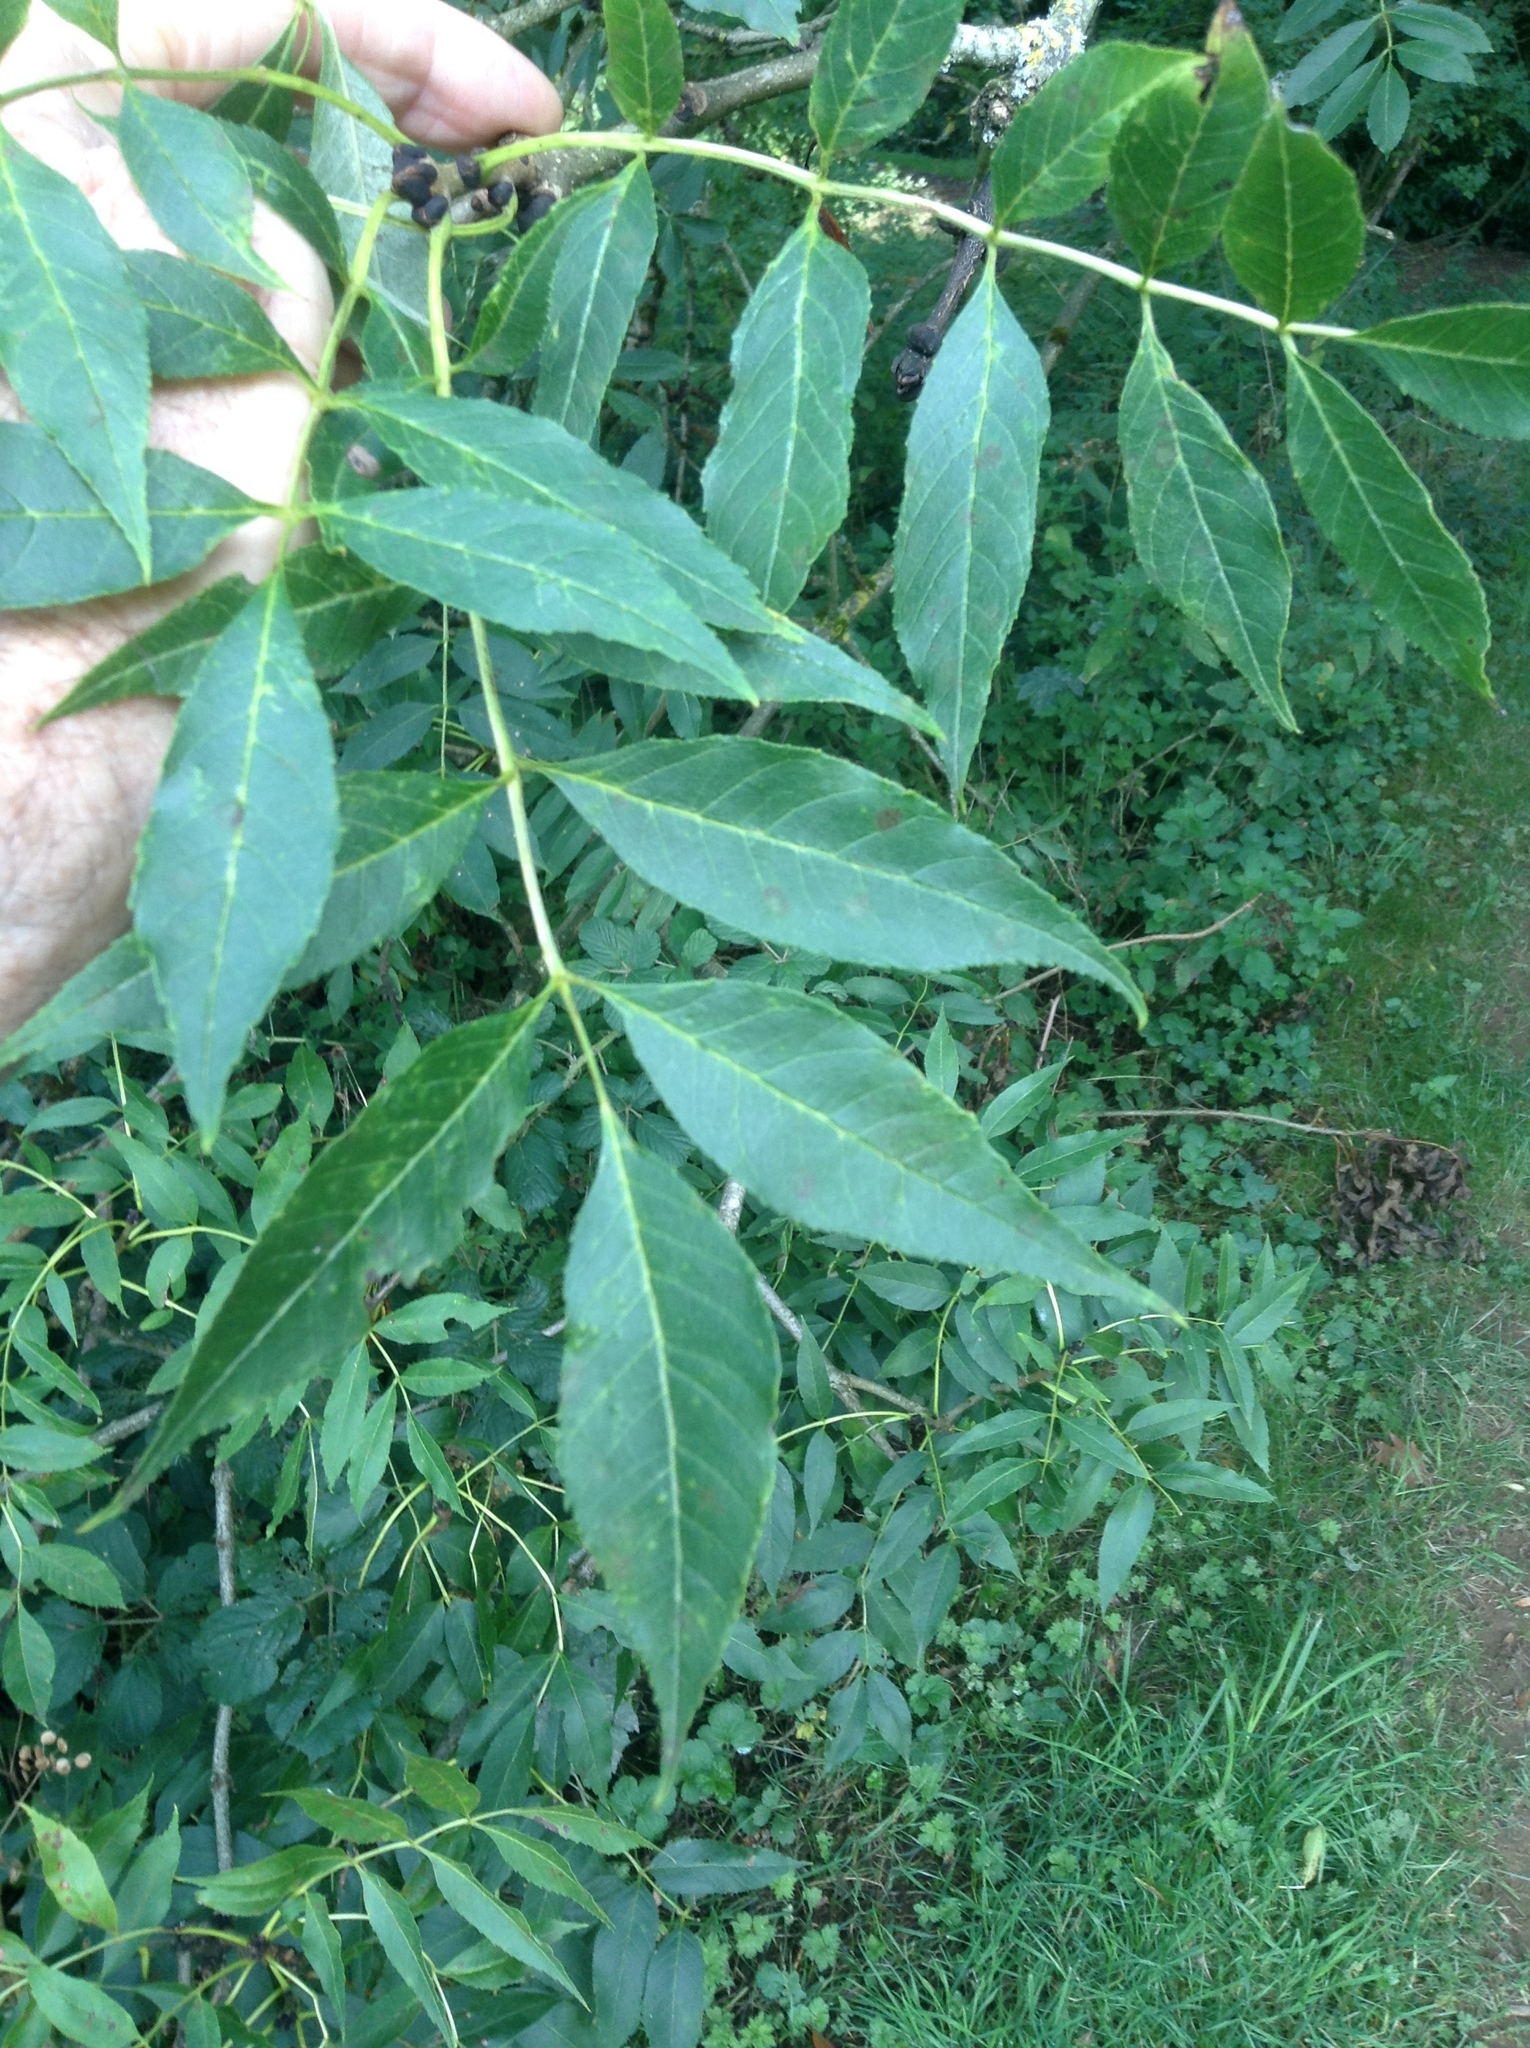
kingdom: Plantae
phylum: Tracheophyta
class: Magnoliopsida
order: Lamiales
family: Oleaceae
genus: Fraxinus
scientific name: Fraxinus excelsior
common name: European ash
